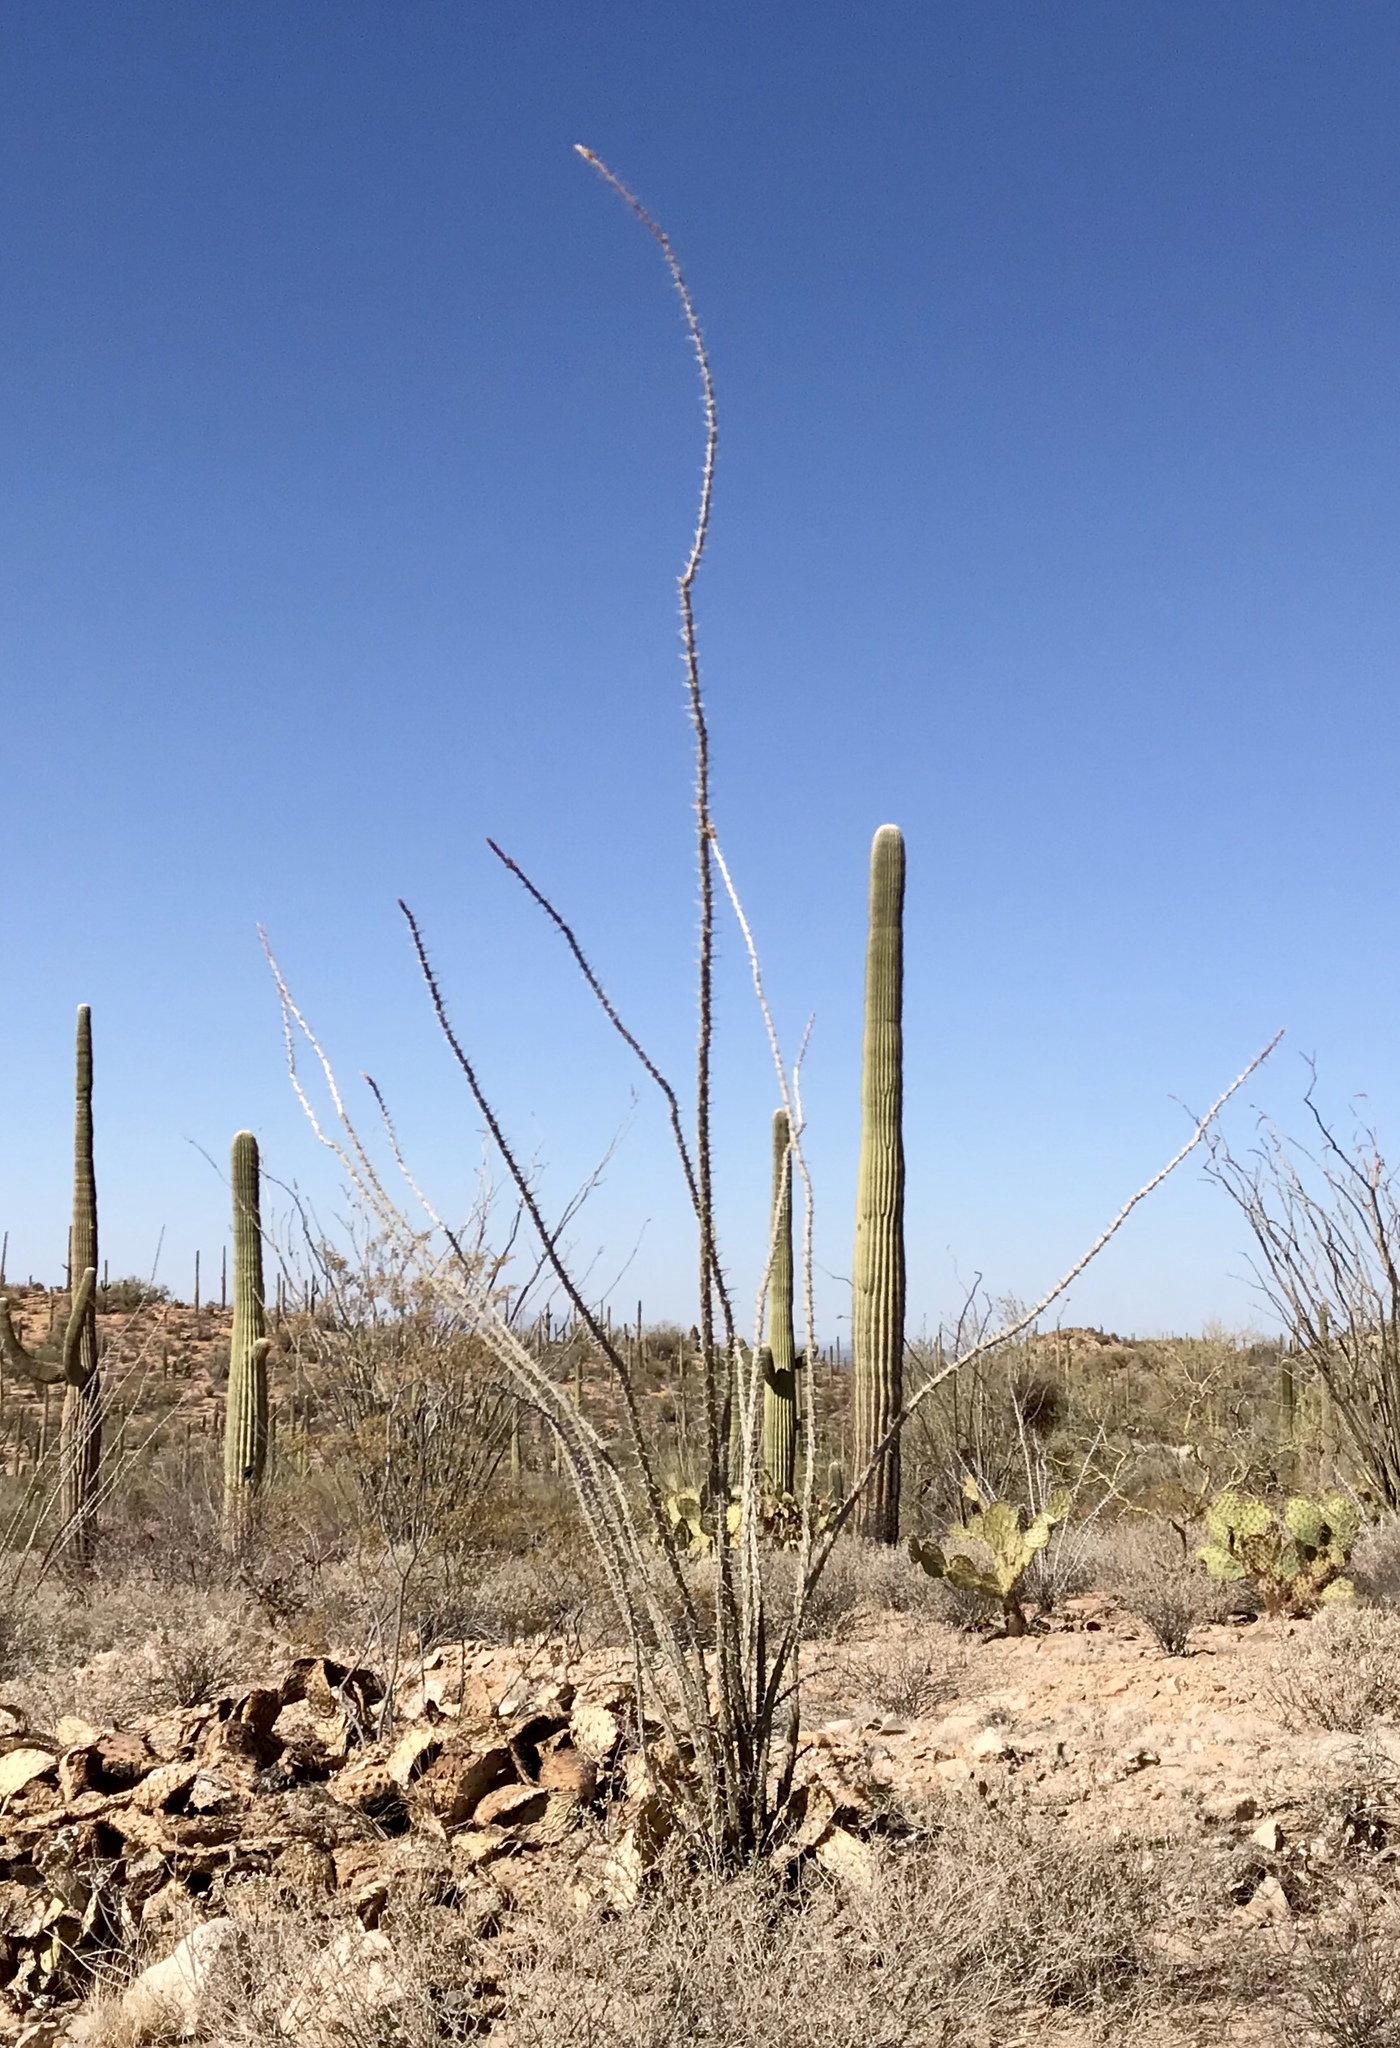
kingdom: Plantae
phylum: Tracheophyta
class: Magnoliopsida
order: Ericales
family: Fouquieriaceae
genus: Fouquieria
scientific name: Fouquieria splendens
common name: Vine-cactus
